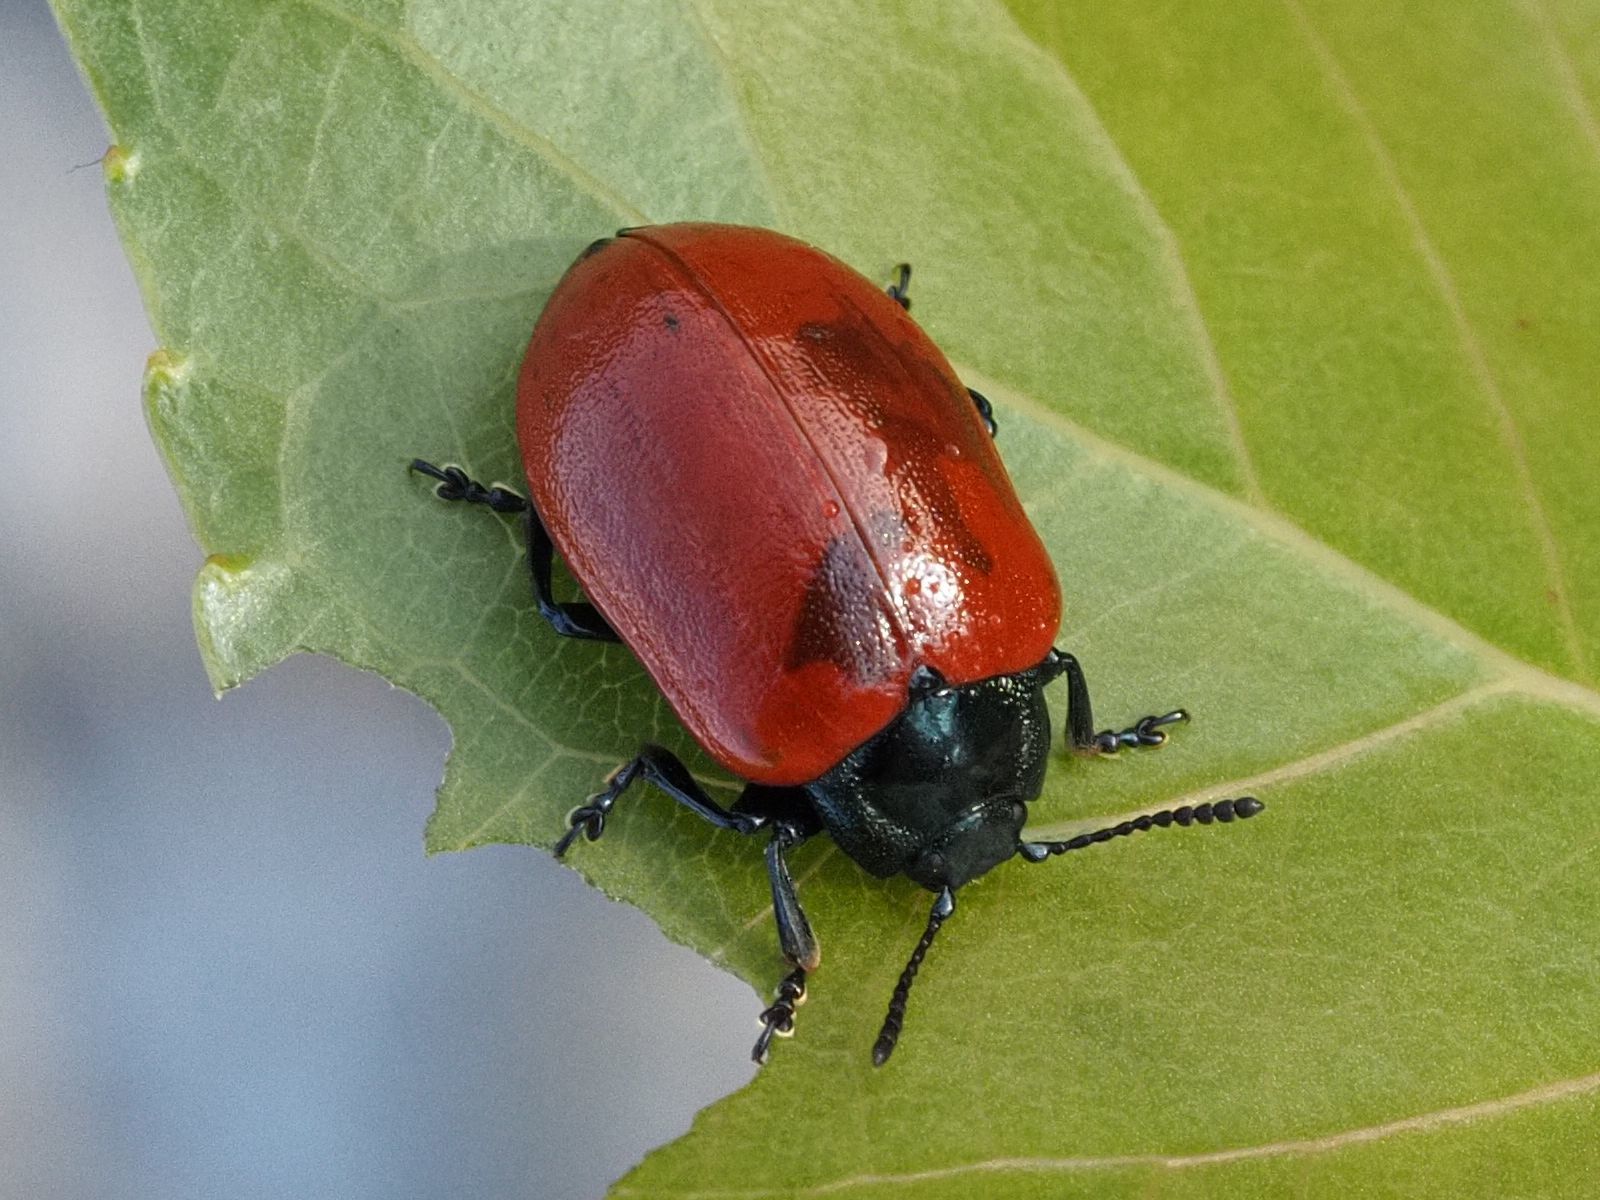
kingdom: Animalia
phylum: Arthropoda
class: Insecta
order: Coleoptera
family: Chrysomelidae
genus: Chrysomela
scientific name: Chrysomela populi
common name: Red poplar leaf beetle
